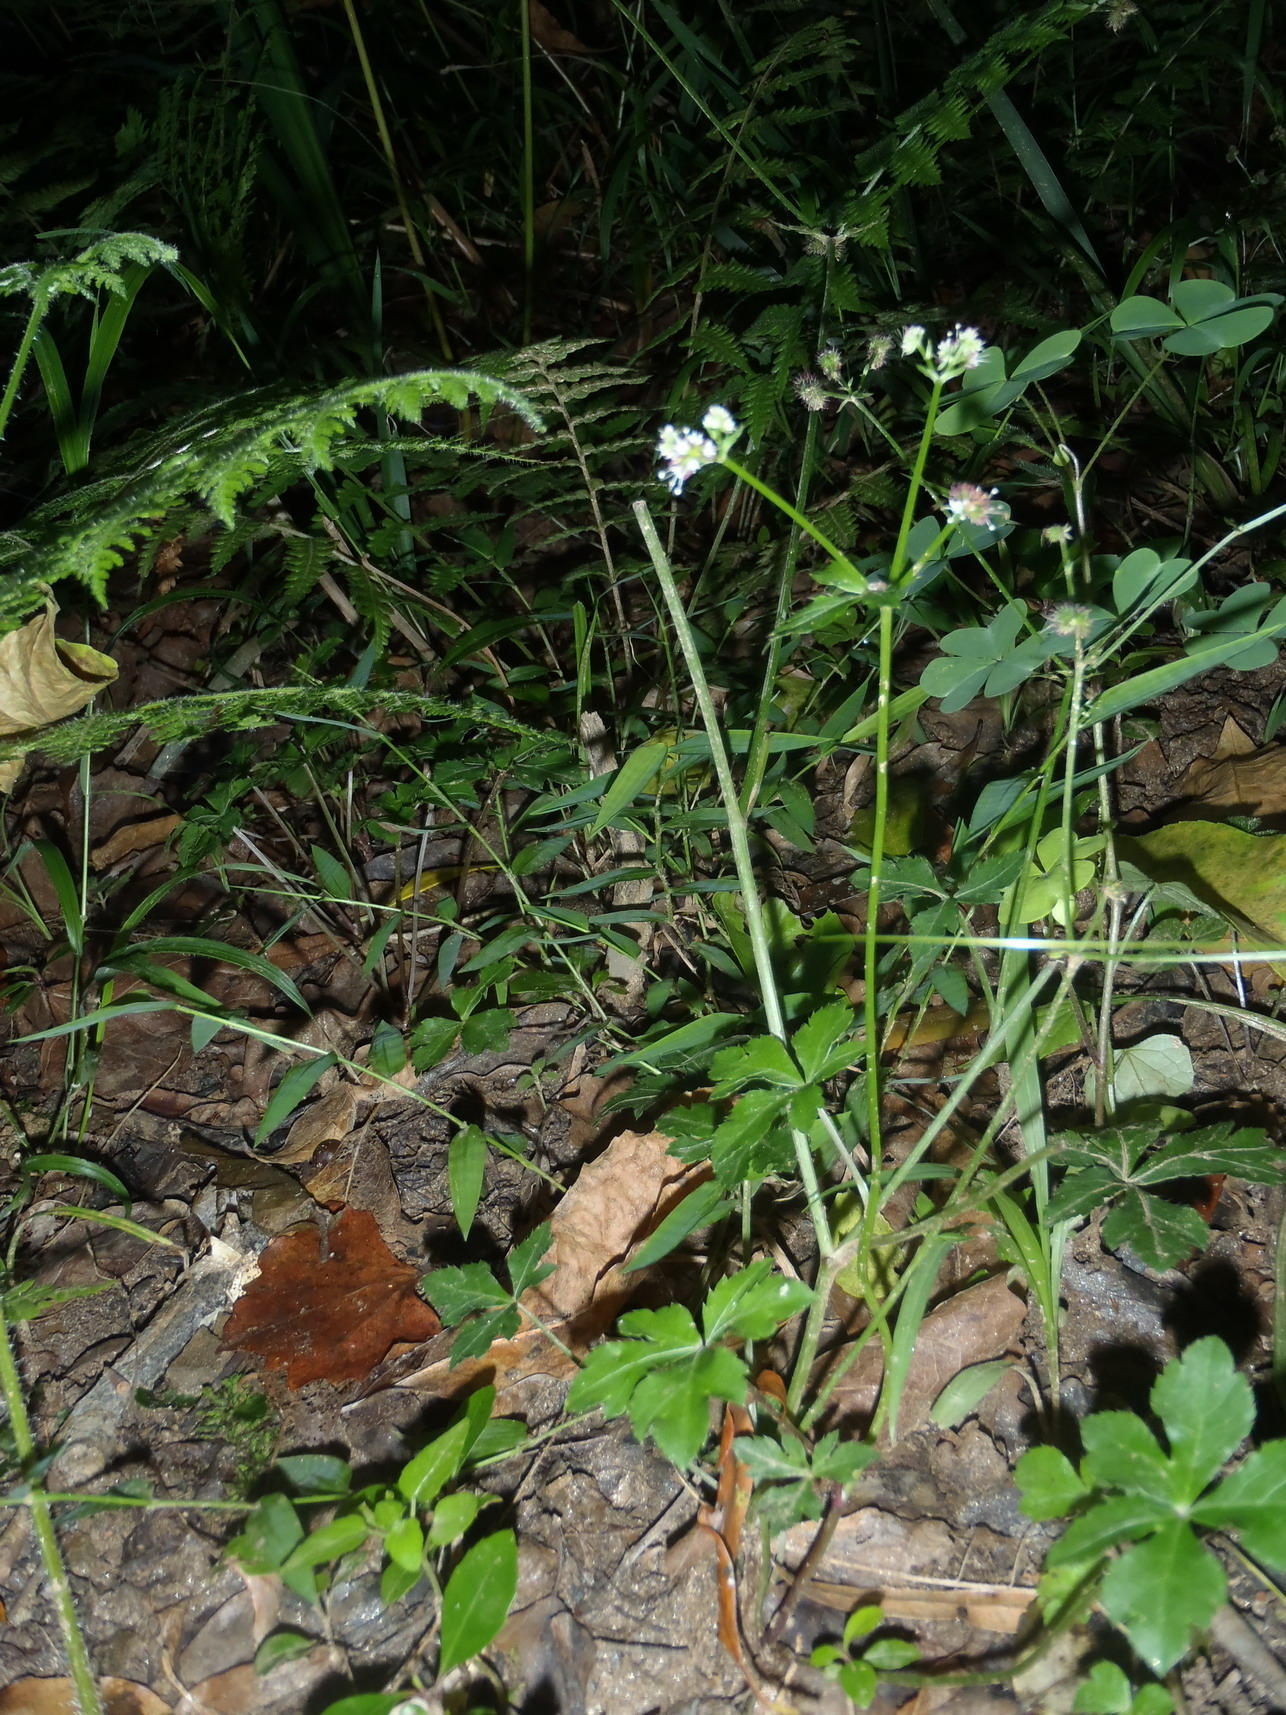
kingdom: Plantae
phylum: Tracheophyta
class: Magnoliopsida
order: Apiales
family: Apiaceae
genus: Sanicula
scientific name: Sanicula elata
